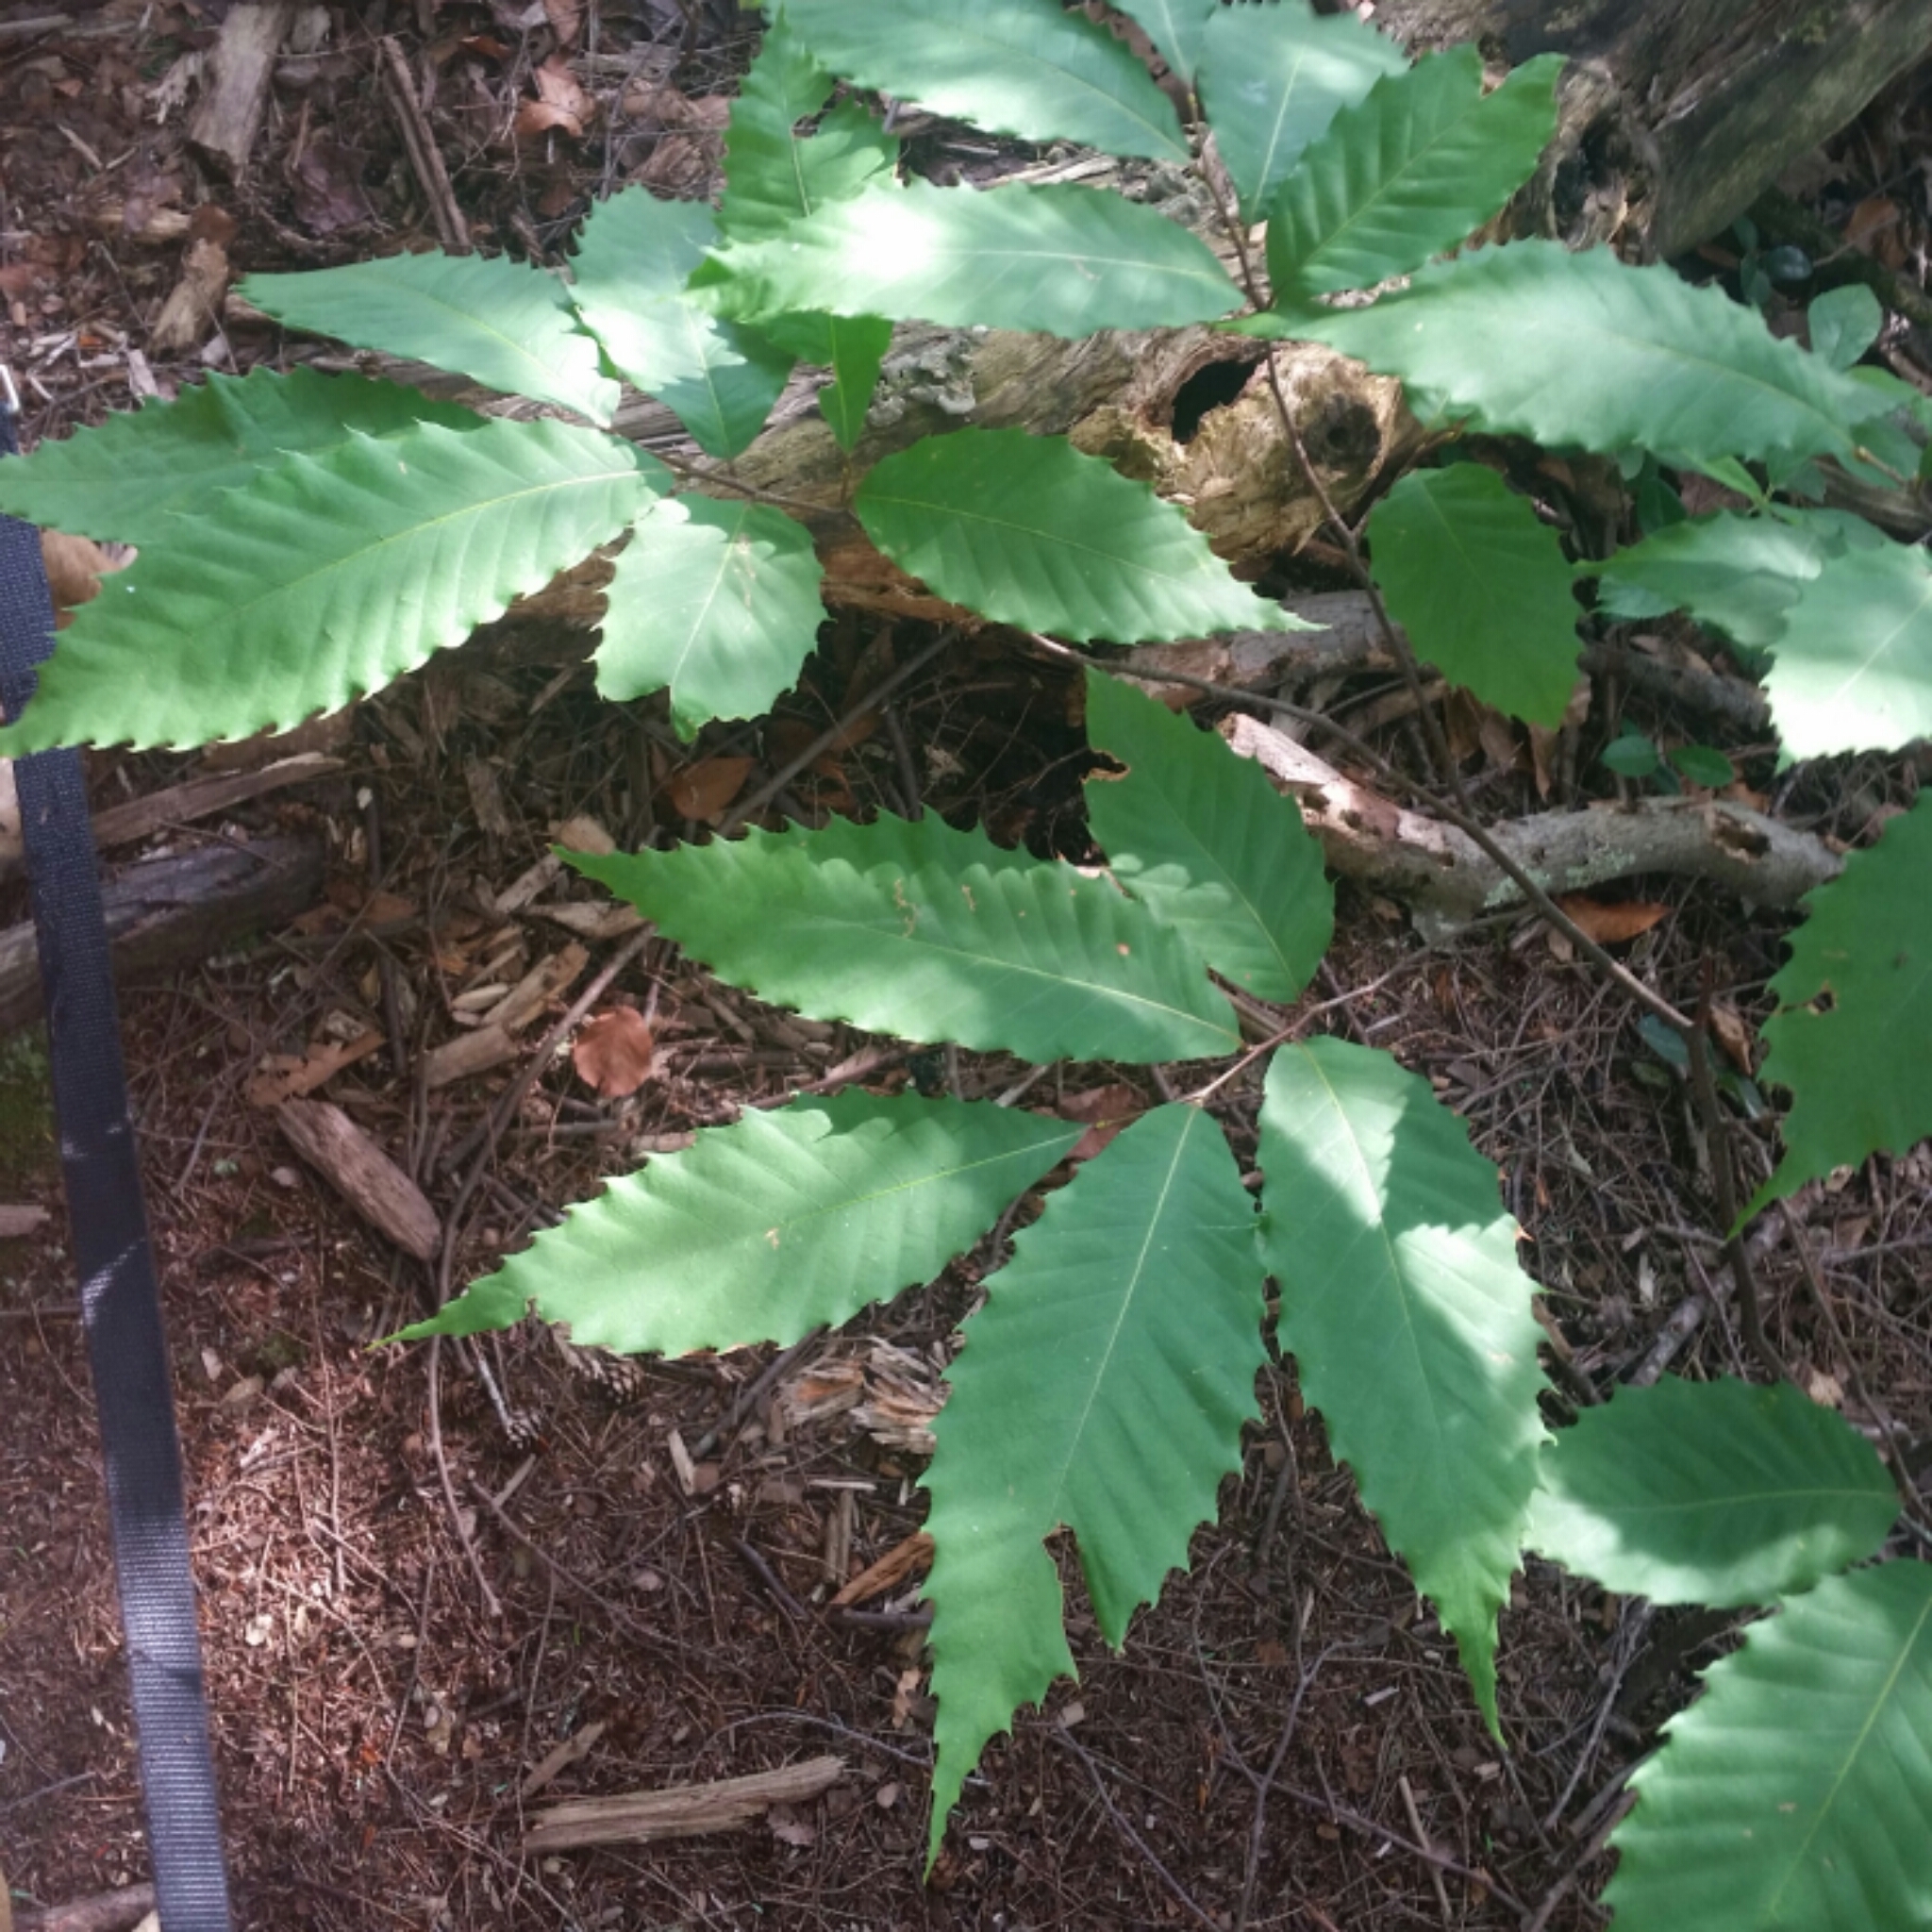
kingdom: Plantae
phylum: Tracheophyta
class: Magnoliopsida
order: Fagales
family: Fagaceae
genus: Castanea
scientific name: Castanea dentata
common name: American chestnut
